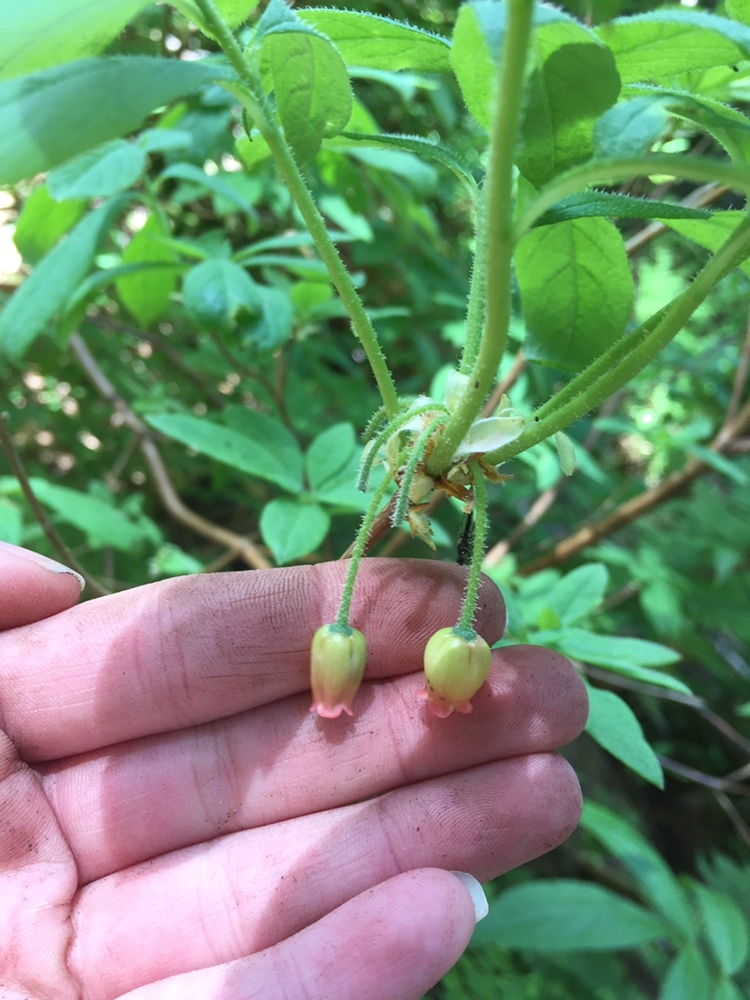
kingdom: Plantae
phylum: Tracheophyta
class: Magnoliopsida
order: Ericales
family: Ericaceae
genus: Rhododendron
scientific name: Rhododendron menziesii
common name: Pacific menziesia
